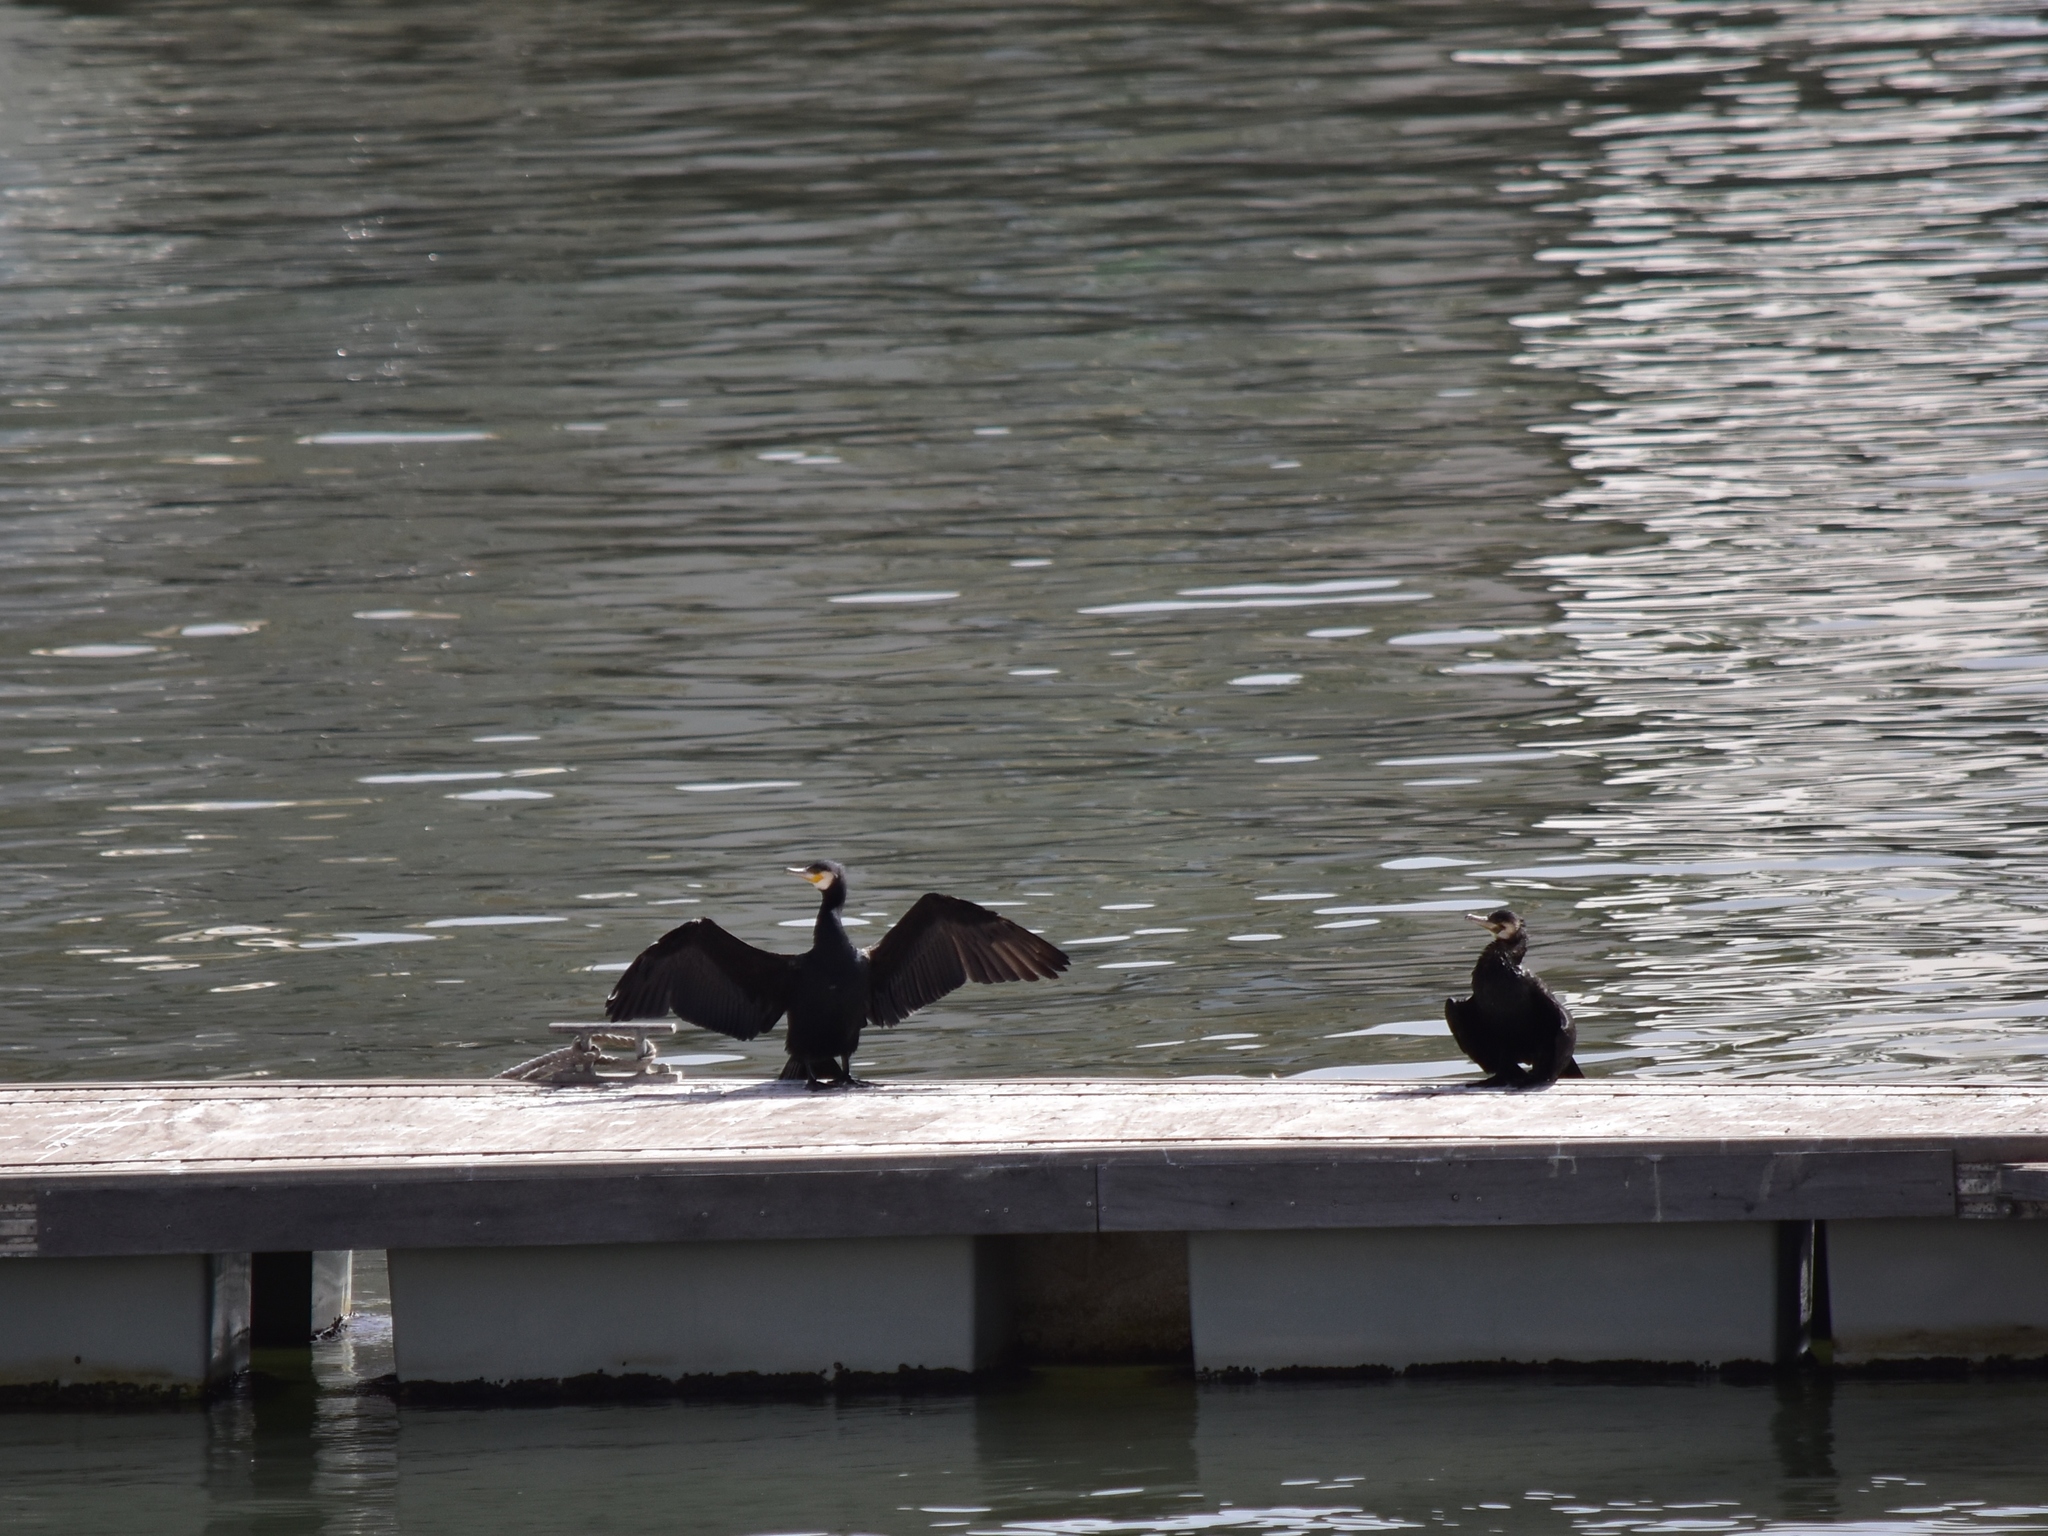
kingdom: Animalia
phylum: Chordata
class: Aves
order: Suliformes
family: Phalacrocoracidae
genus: Phalacrocorax
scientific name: Phalacrocorax carbo
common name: Great cormorant
